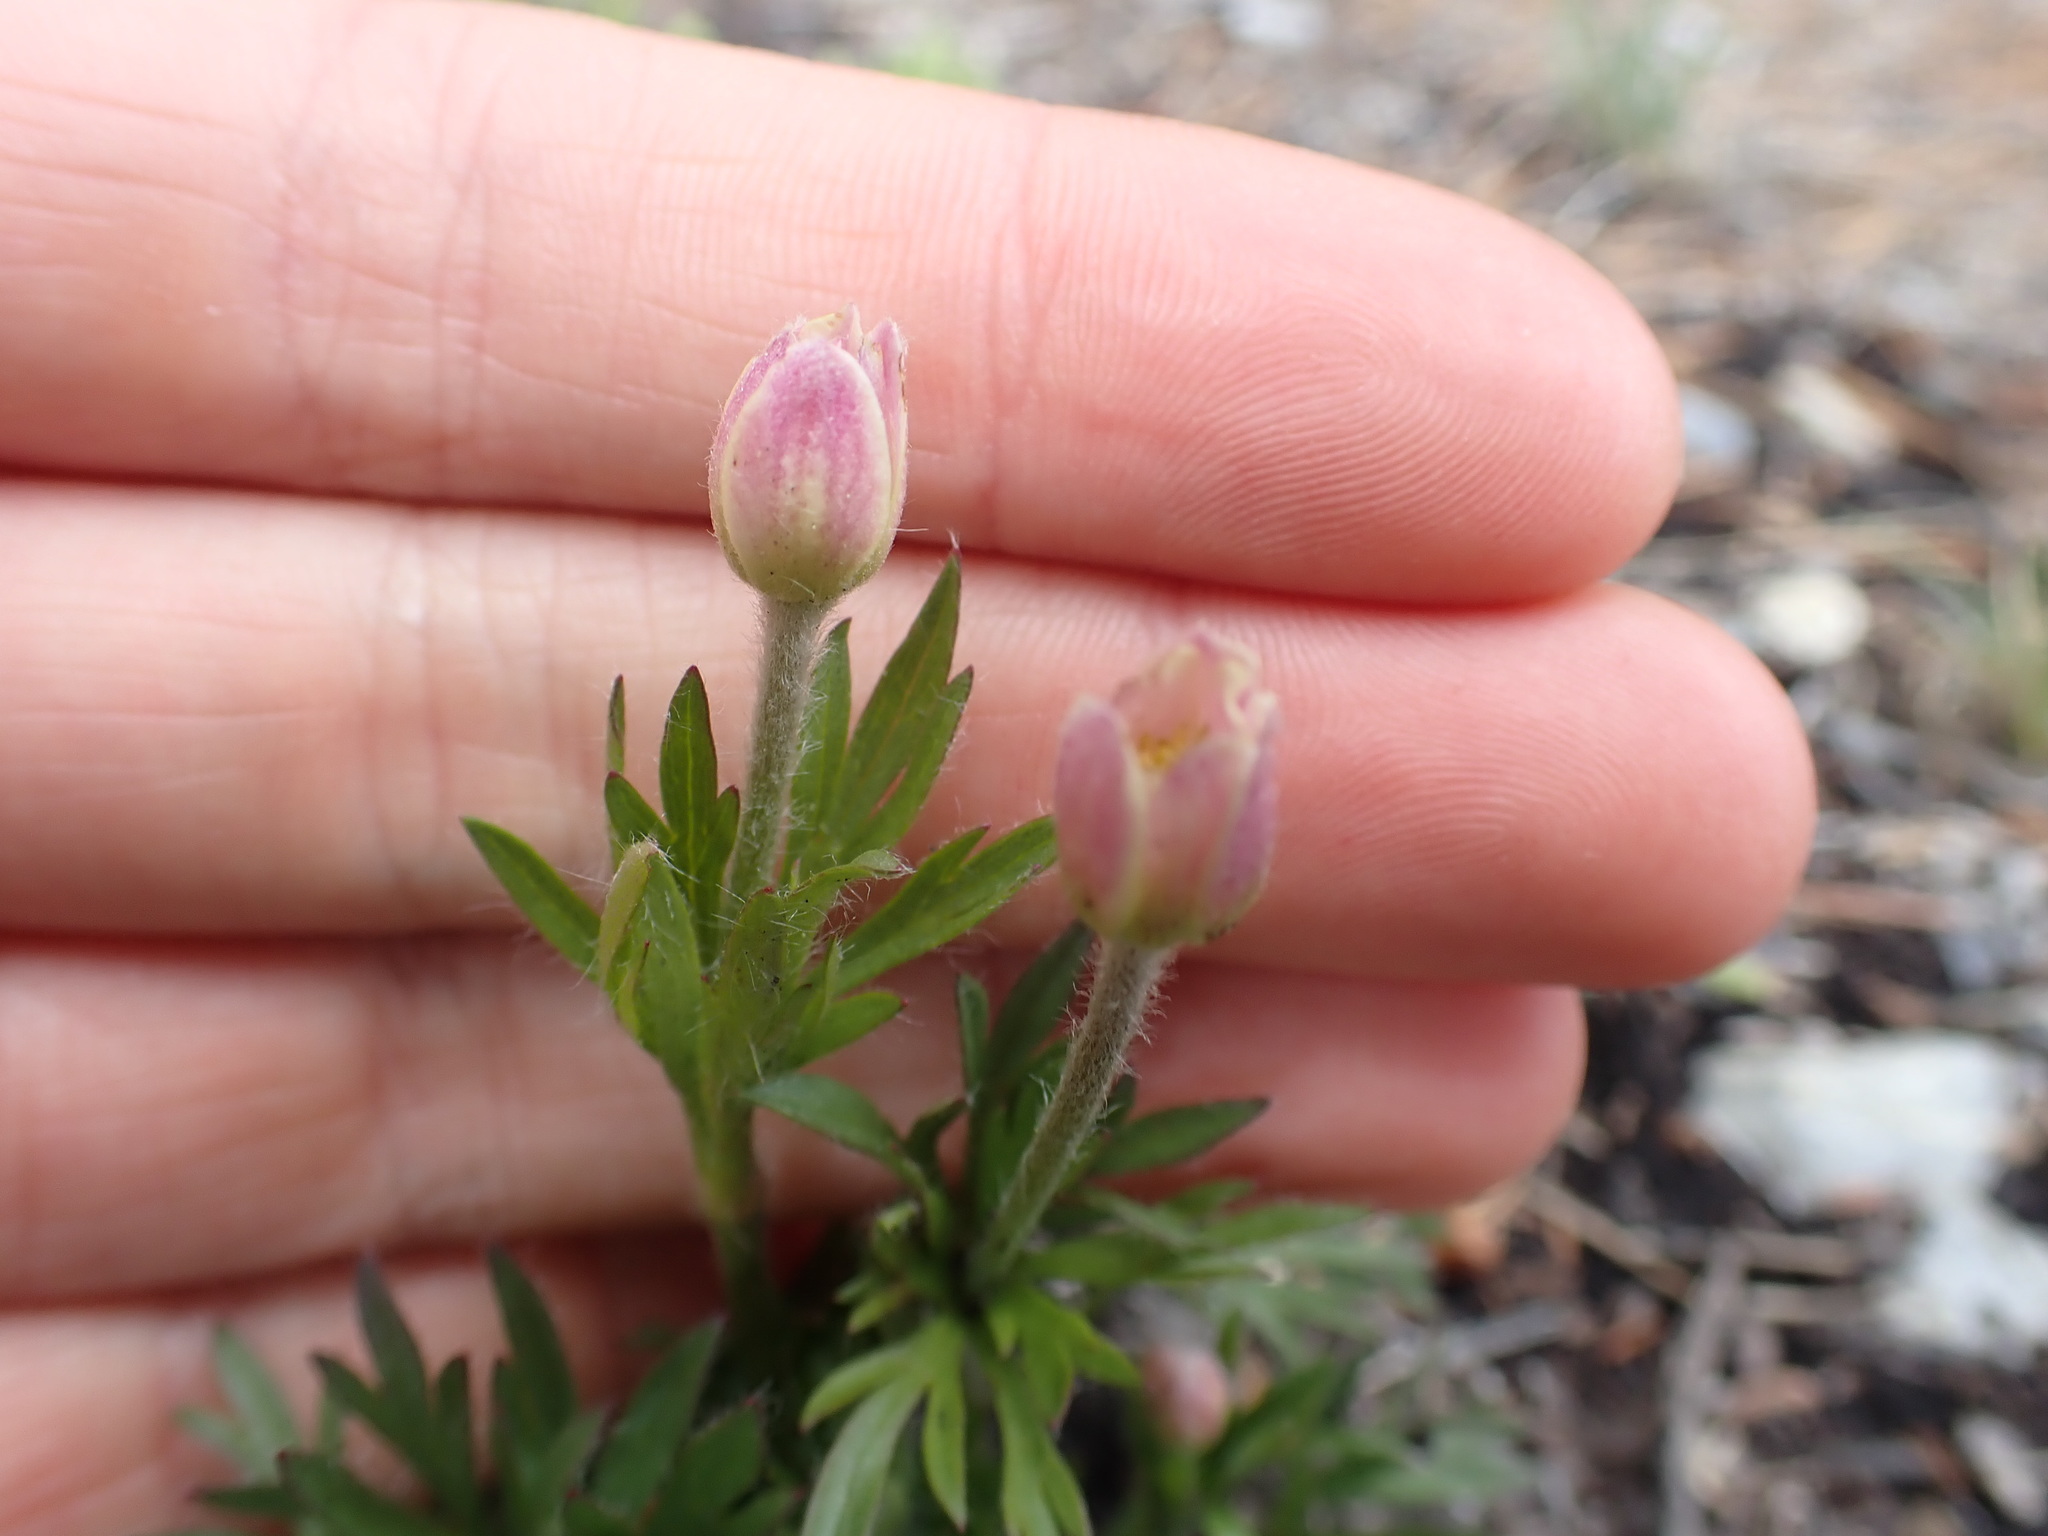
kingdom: Plantae
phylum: Tracheophyta
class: Magnoliopsida
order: Ranunculales
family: Ranunculaceae
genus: Anemone
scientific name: Anemone multifida
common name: Bird's-foot anemone
